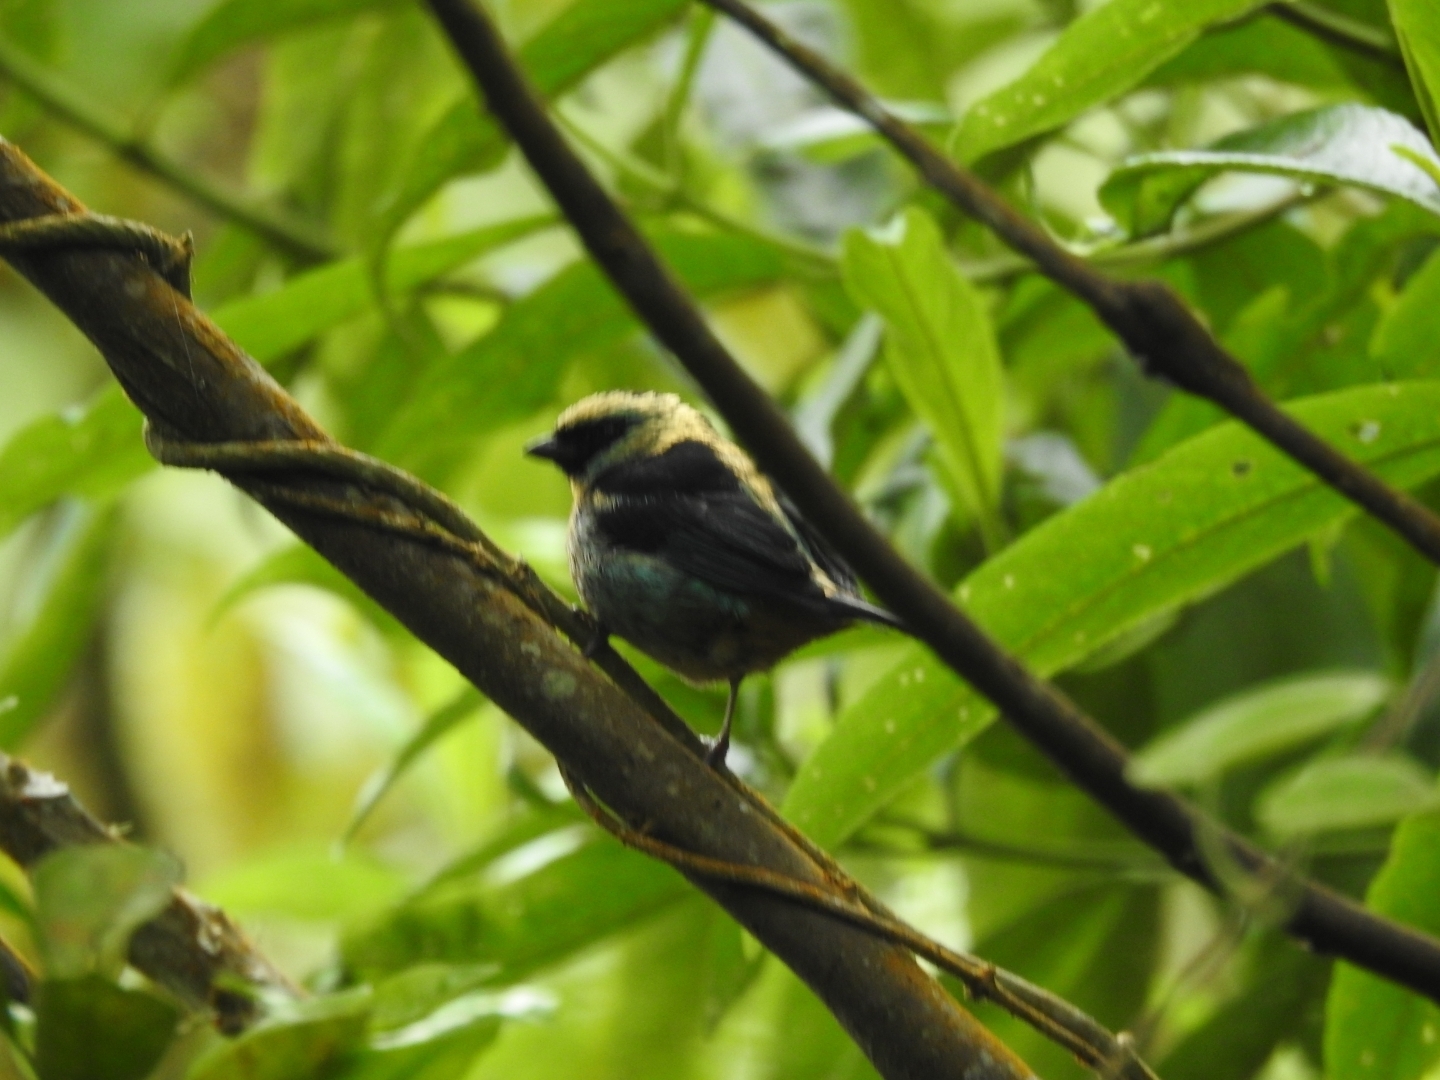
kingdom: Animalia
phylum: Chordata
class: Aves
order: Passeriformes
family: Thraupidae
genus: Tangara
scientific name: Tangara labradorides
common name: Metallic-green tanager
